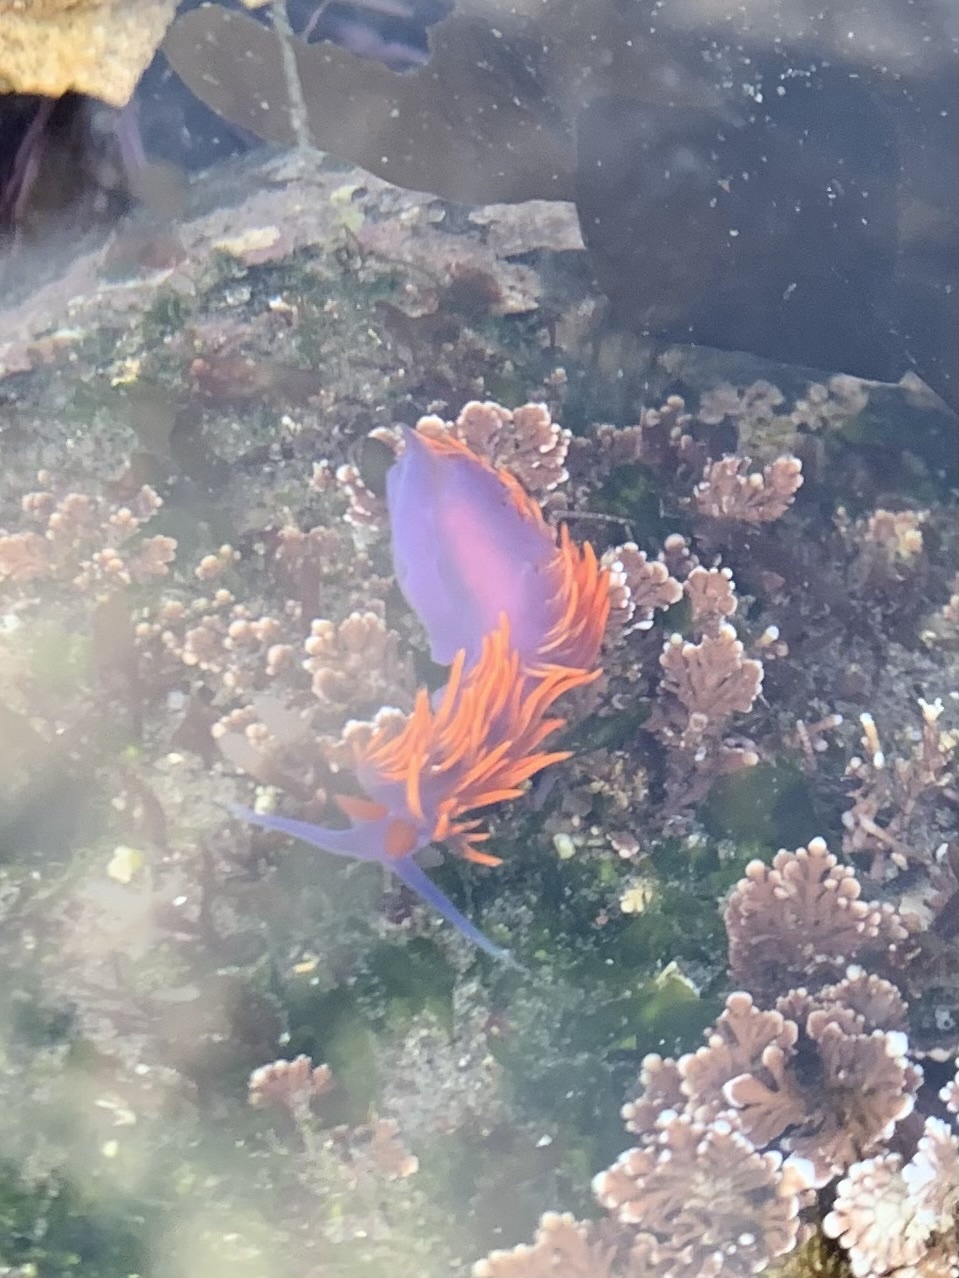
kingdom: Animalia
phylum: Mollusca
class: Gastropoda
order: Nudibranchia
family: Flabellinopsidae
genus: Flabellinopsis
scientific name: Flabellinopsis iodinea
